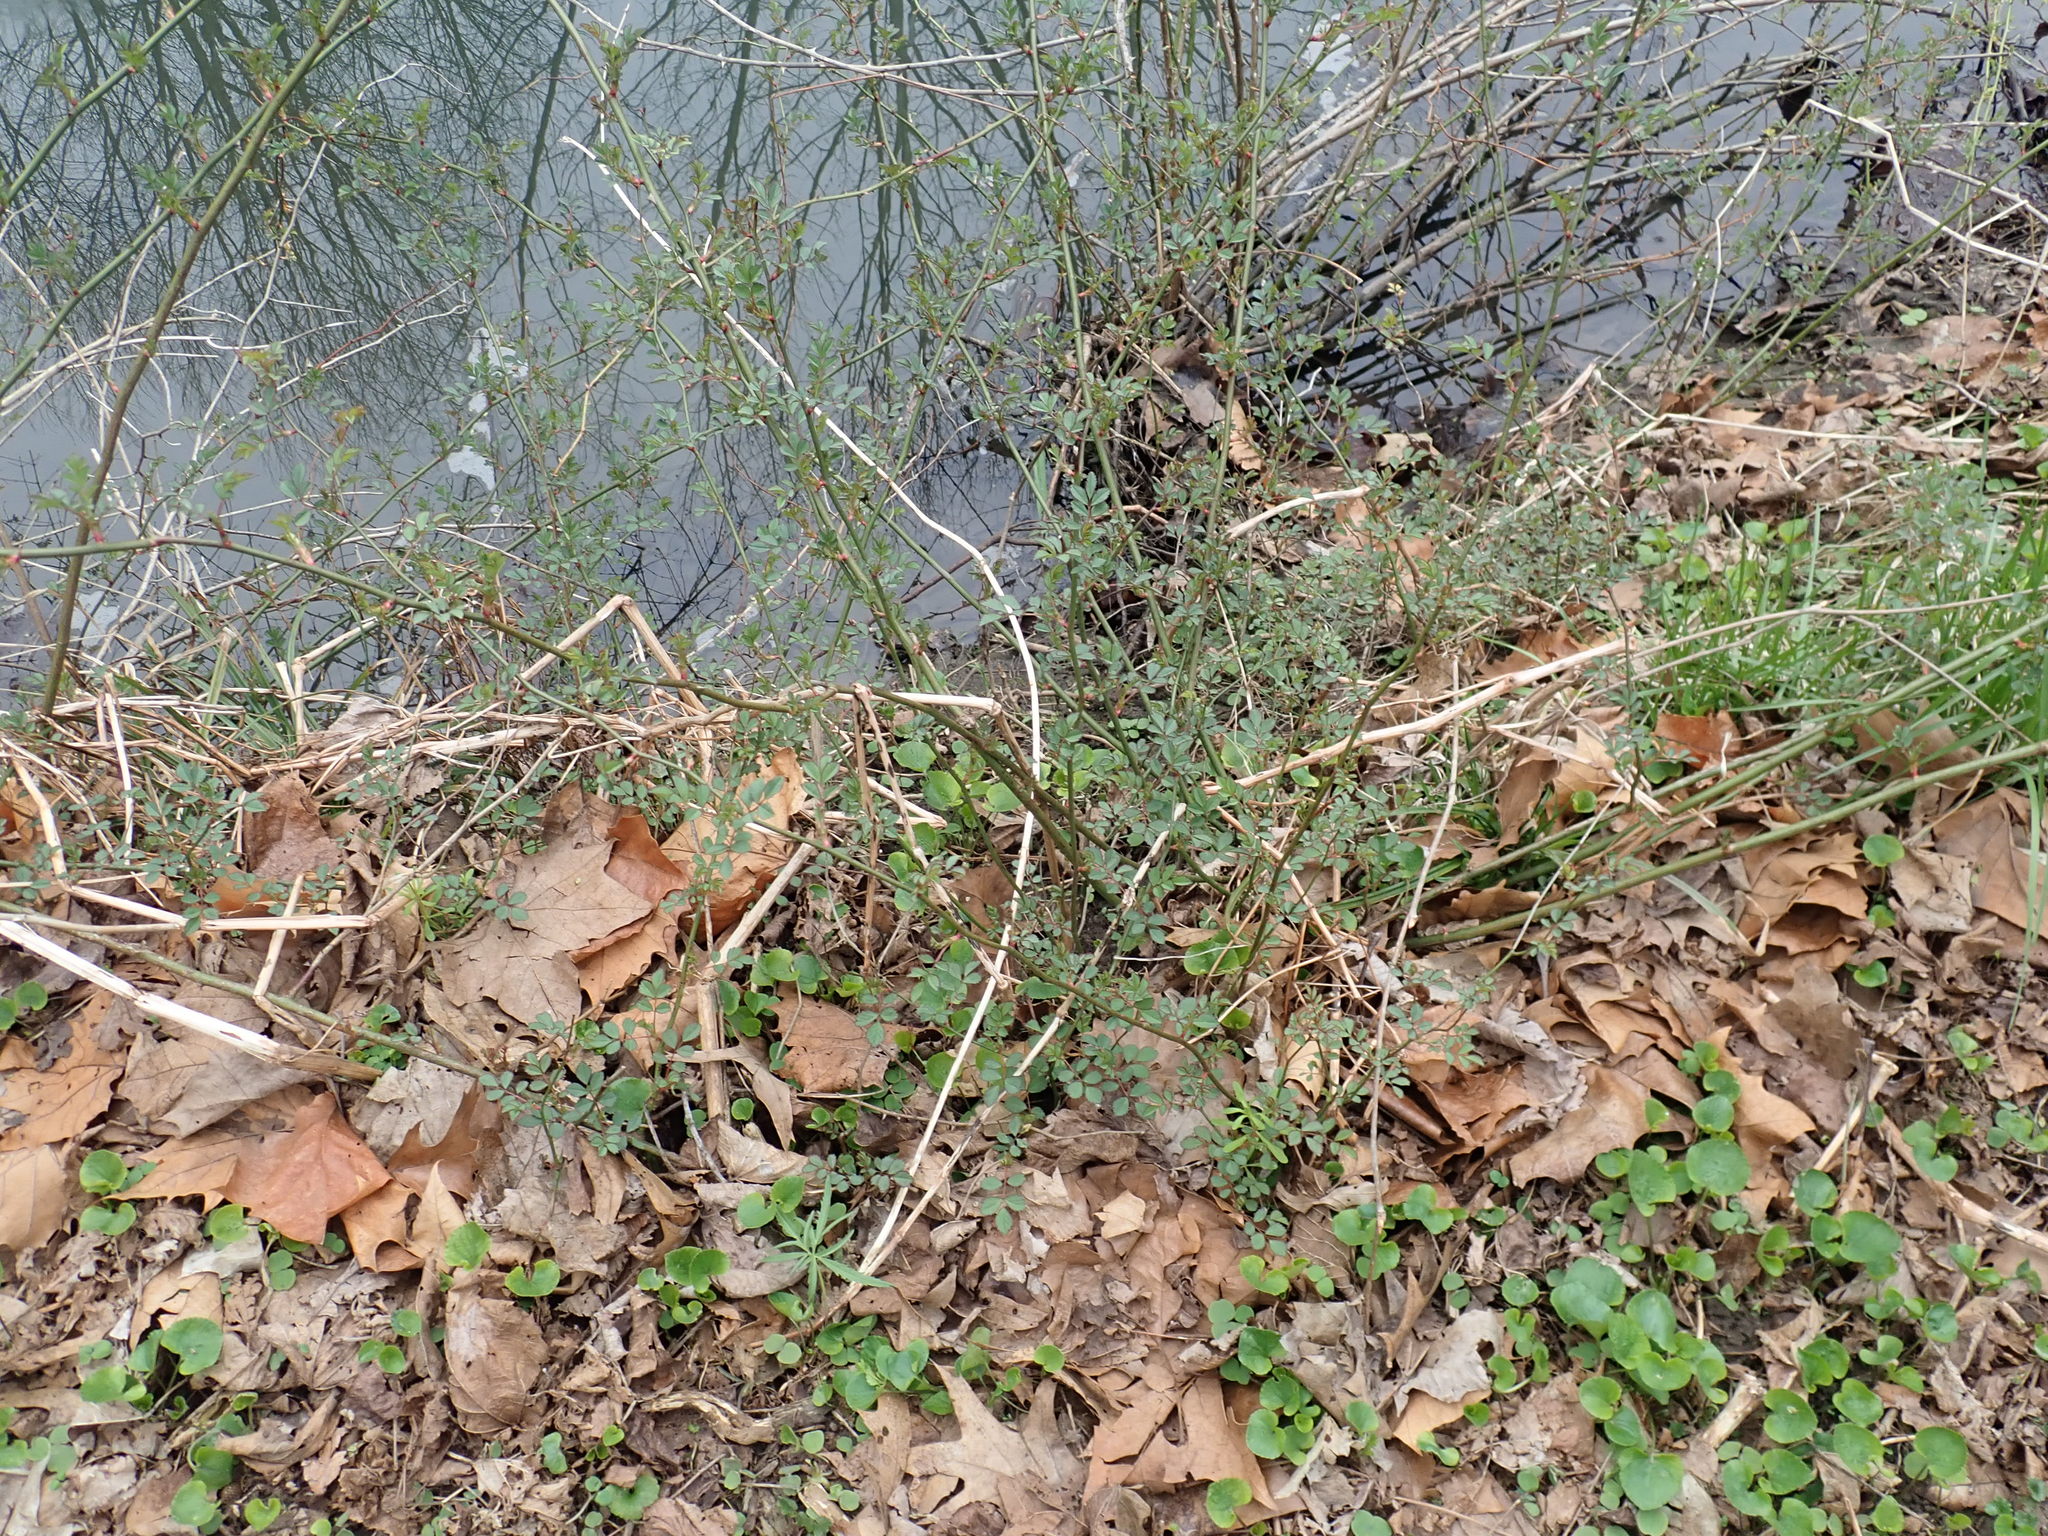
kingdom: Plantae
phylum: Tracheophyta
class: Magnoliopsida
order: Rosales
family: Rosaceae
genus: Rosa
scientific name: Rosa multiflora
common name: Multiflora rose
